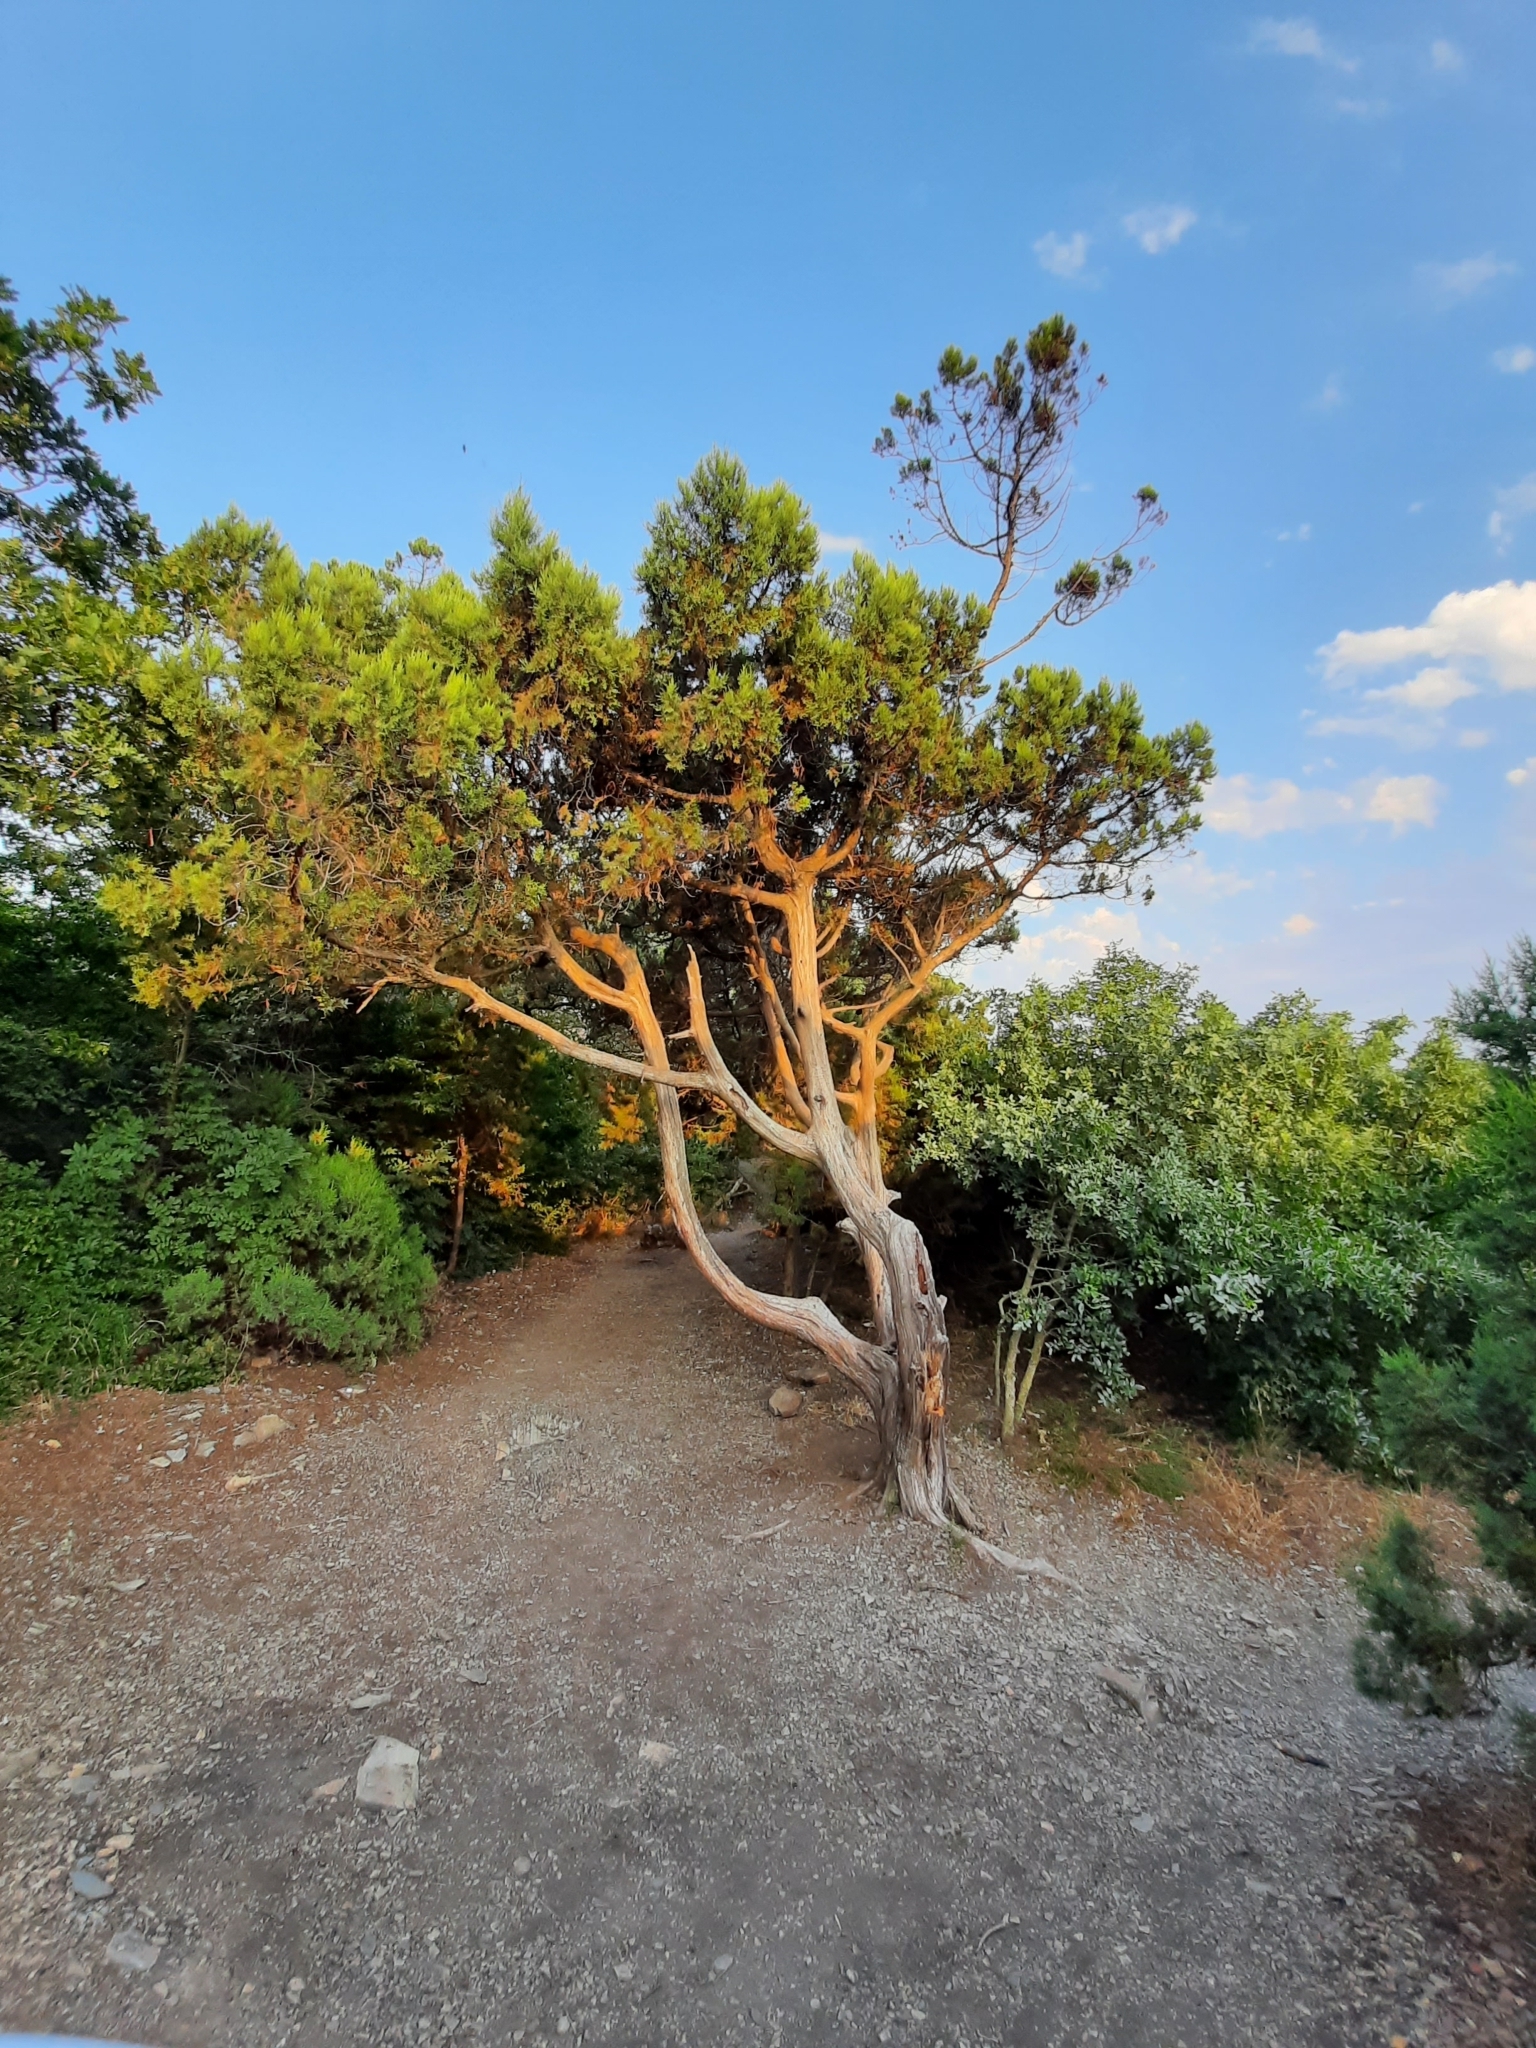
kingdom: Plantae
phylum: Tracheophyta
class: Pinopsida
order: Pinales
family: Cupressaceae
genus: Juniperus
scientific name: Juniperus excelsa
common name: Crimean juniper
